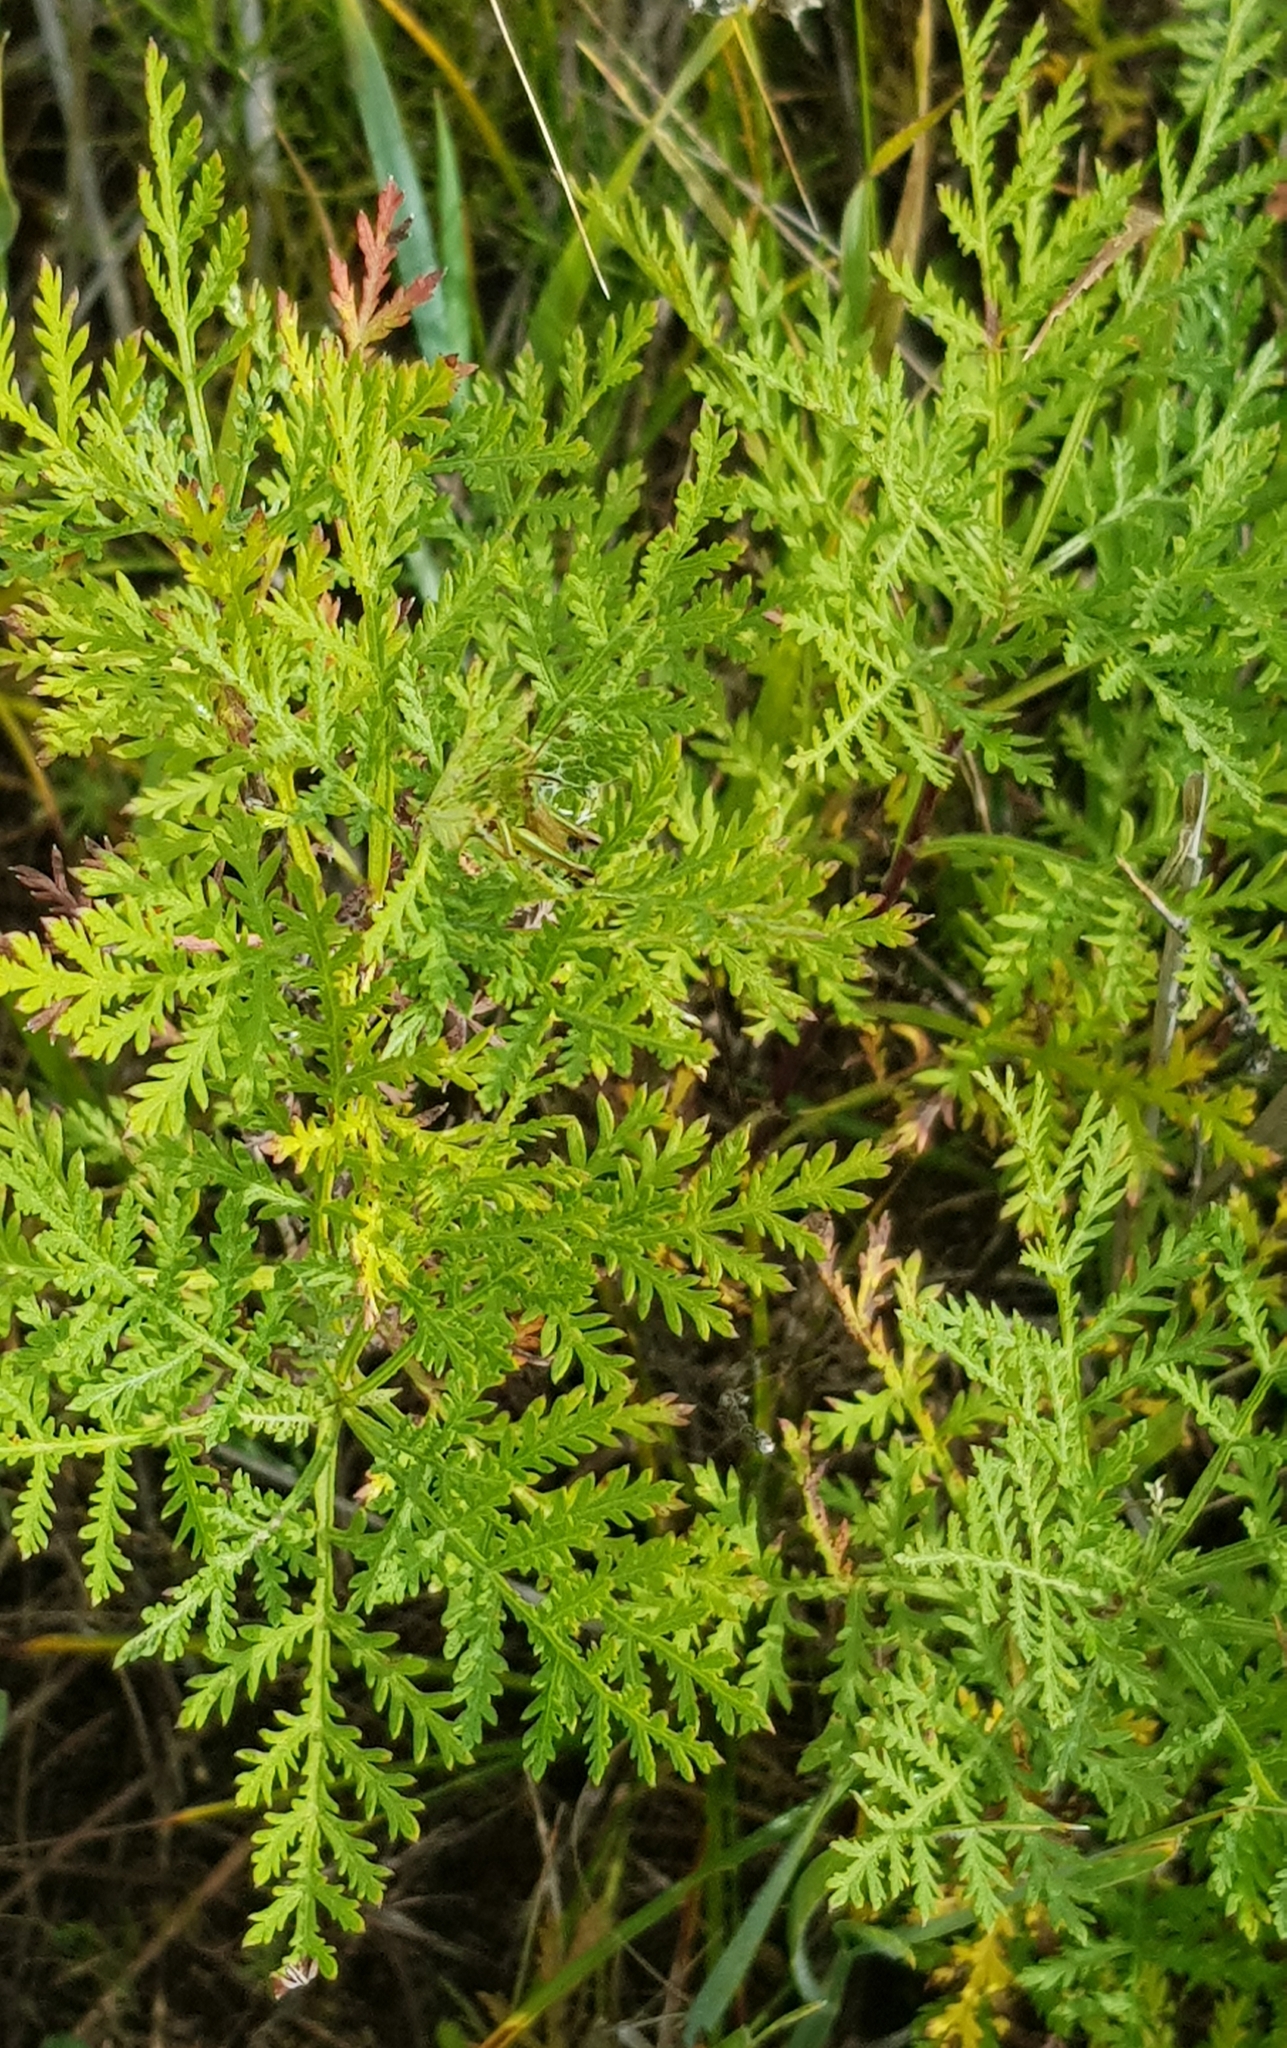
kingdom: Plantae
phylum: Tracheophyta
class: Magnoliopsida
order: Asterales
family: Asteraceae
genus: Artemisia
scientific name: Artemisia gmelinii
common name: Gmelin's wormwood
